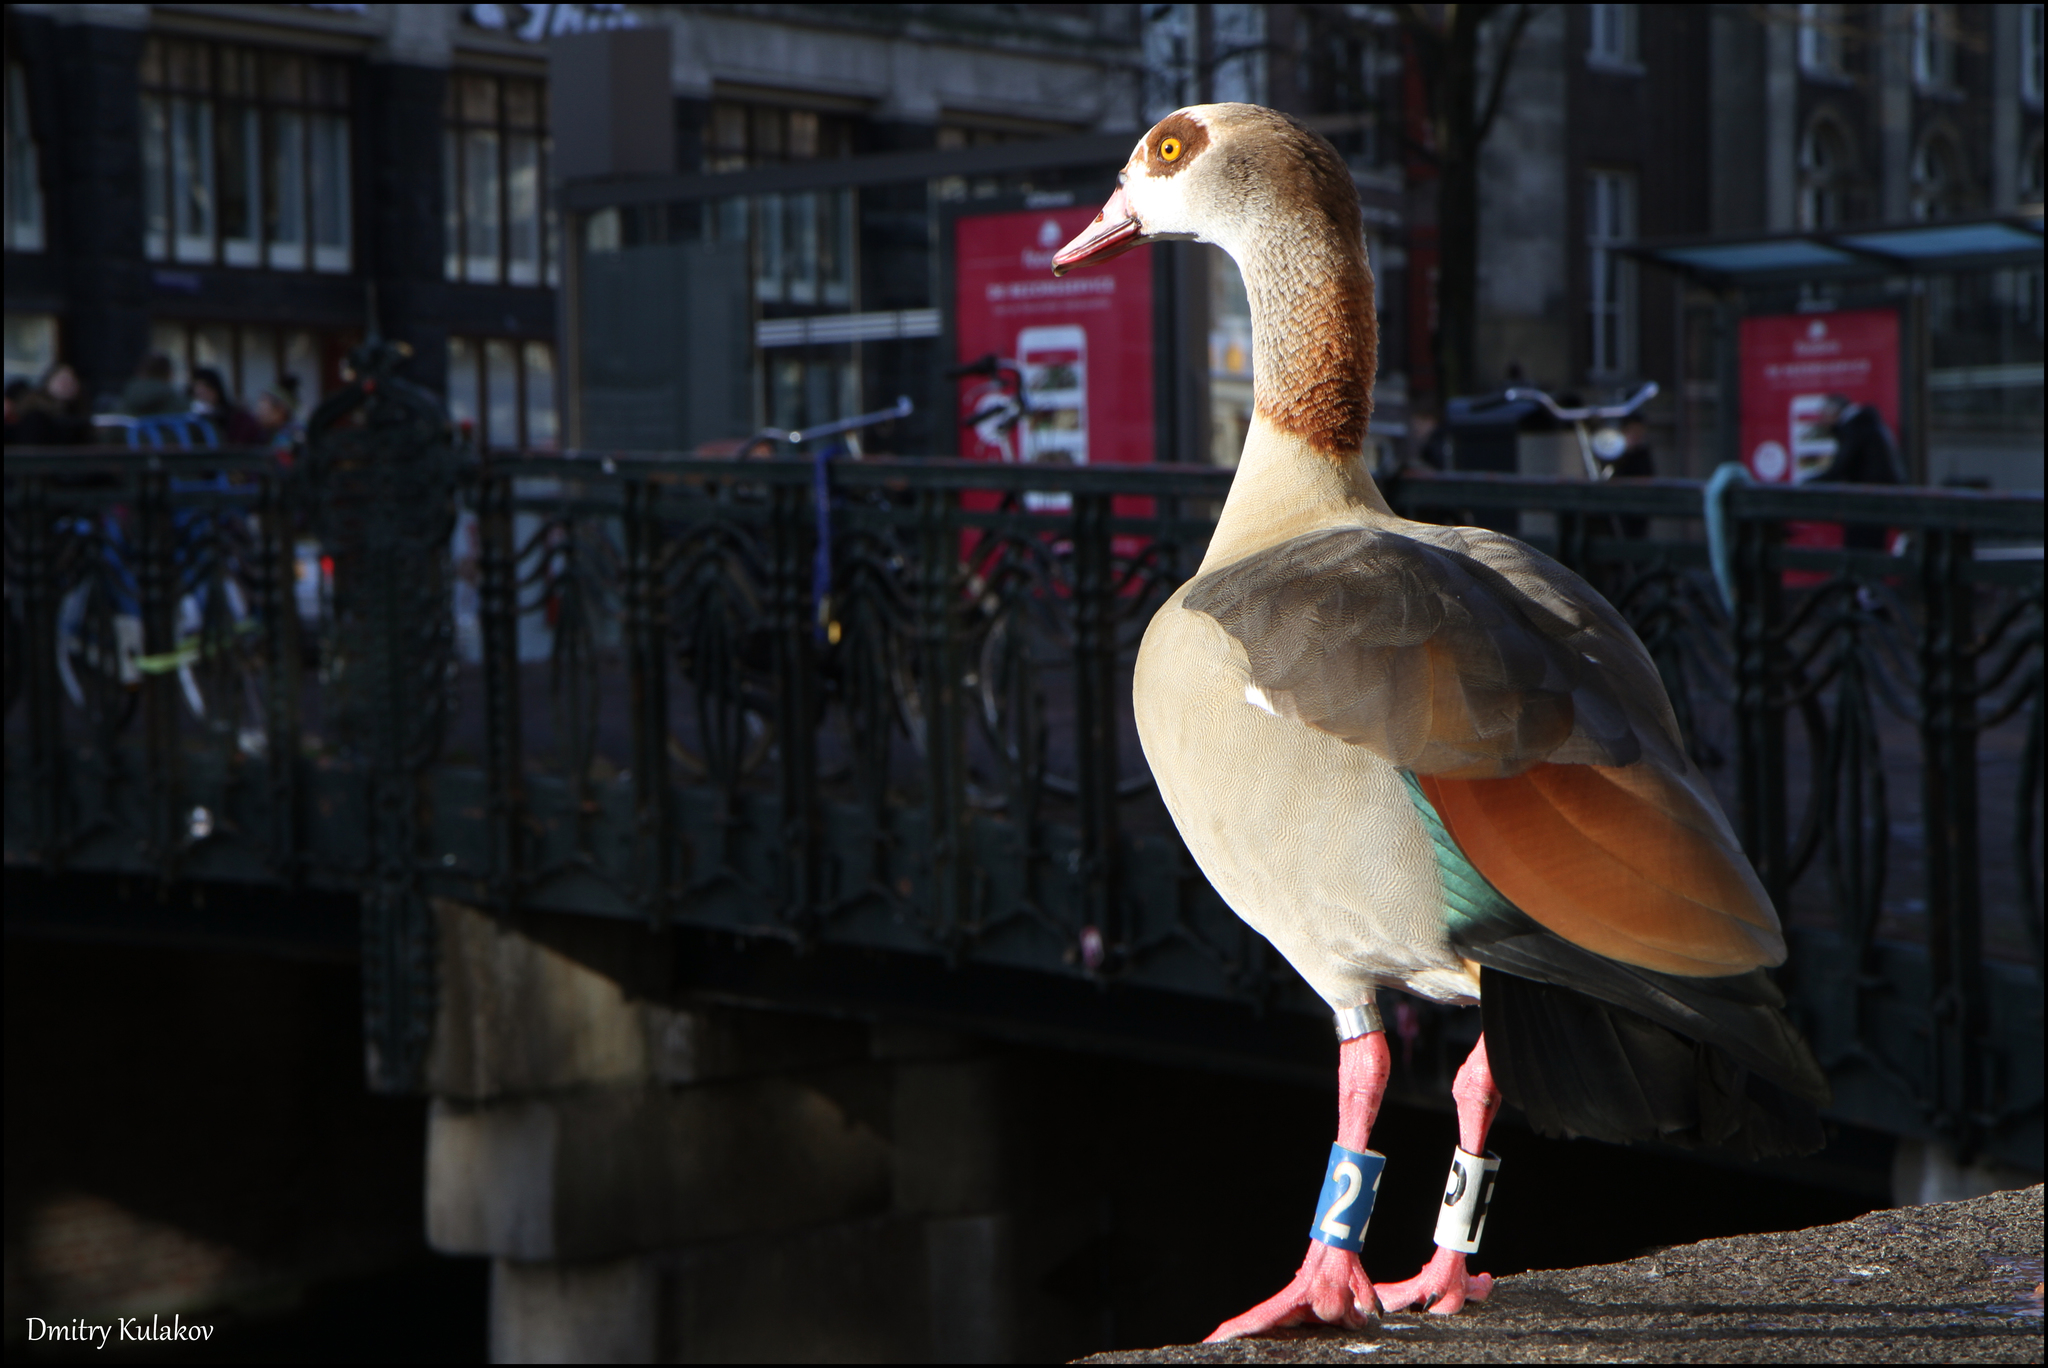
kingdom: Animalia
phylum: Chordata
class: Aves
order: Anseriformes
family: Anatidae
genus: Alopochen
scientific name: Alopochen aegyptiaca
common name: Egyptian goose
